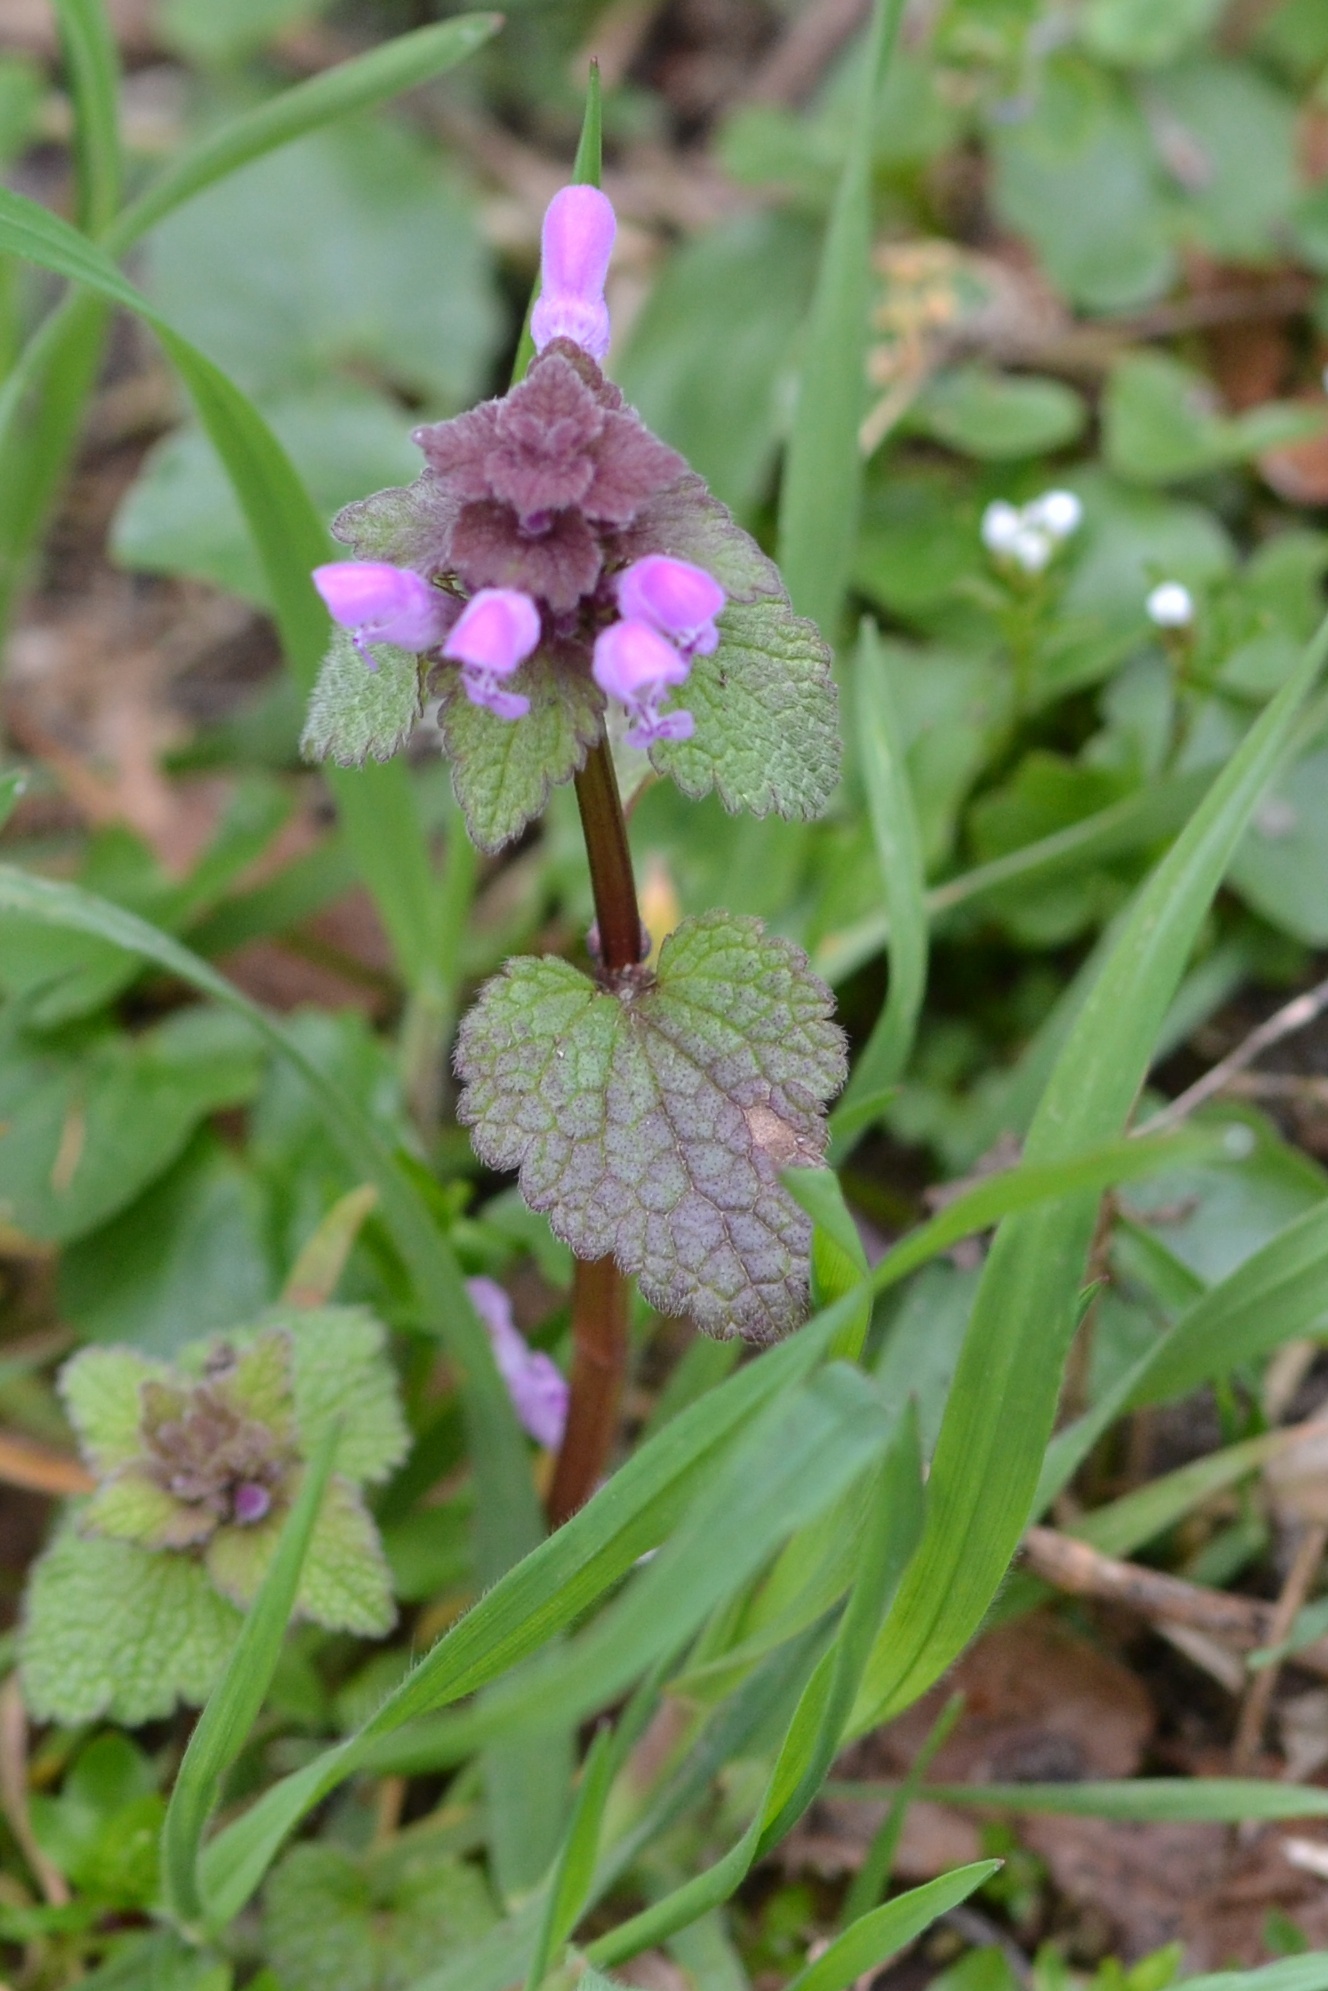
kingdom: Plantae
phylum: Tracheophyta
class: Magnoliopsida
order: Lamiales
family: Lamiaceae
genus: Lamium
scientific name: Lamium purpureum
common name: Red dead-nettle
